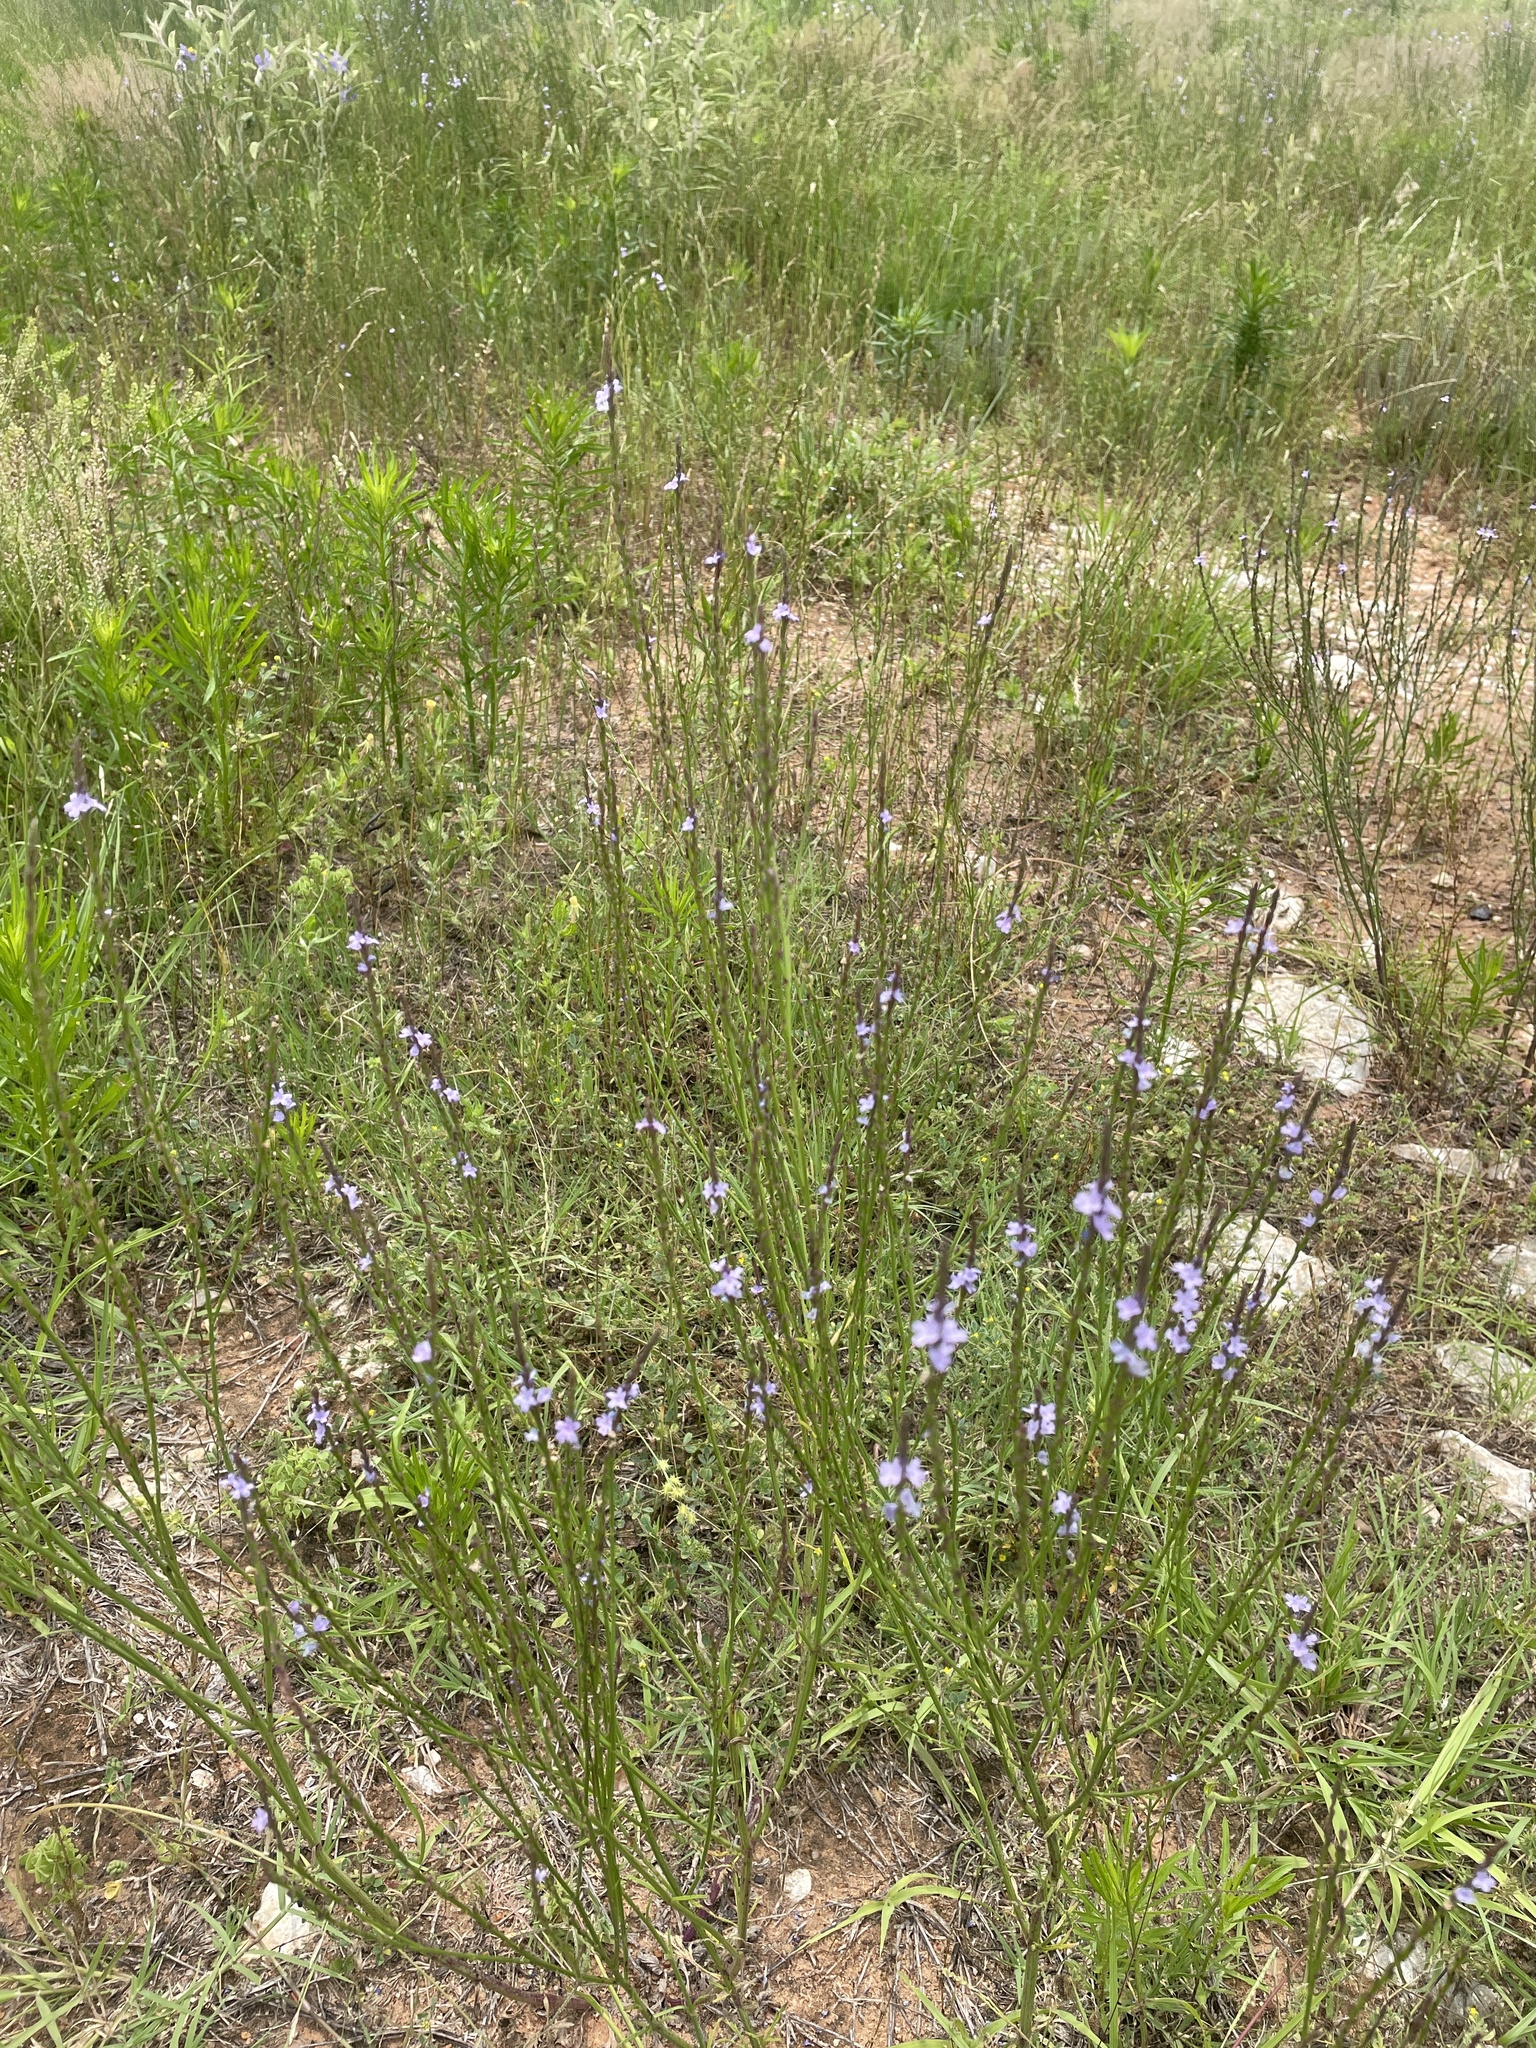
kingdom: Plantae
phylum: Tracheophyta
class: Magnoliopsida
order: Lamiales
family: Verbenaceae
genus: Verbena
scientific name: Verbena halei
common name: Texas vervain
